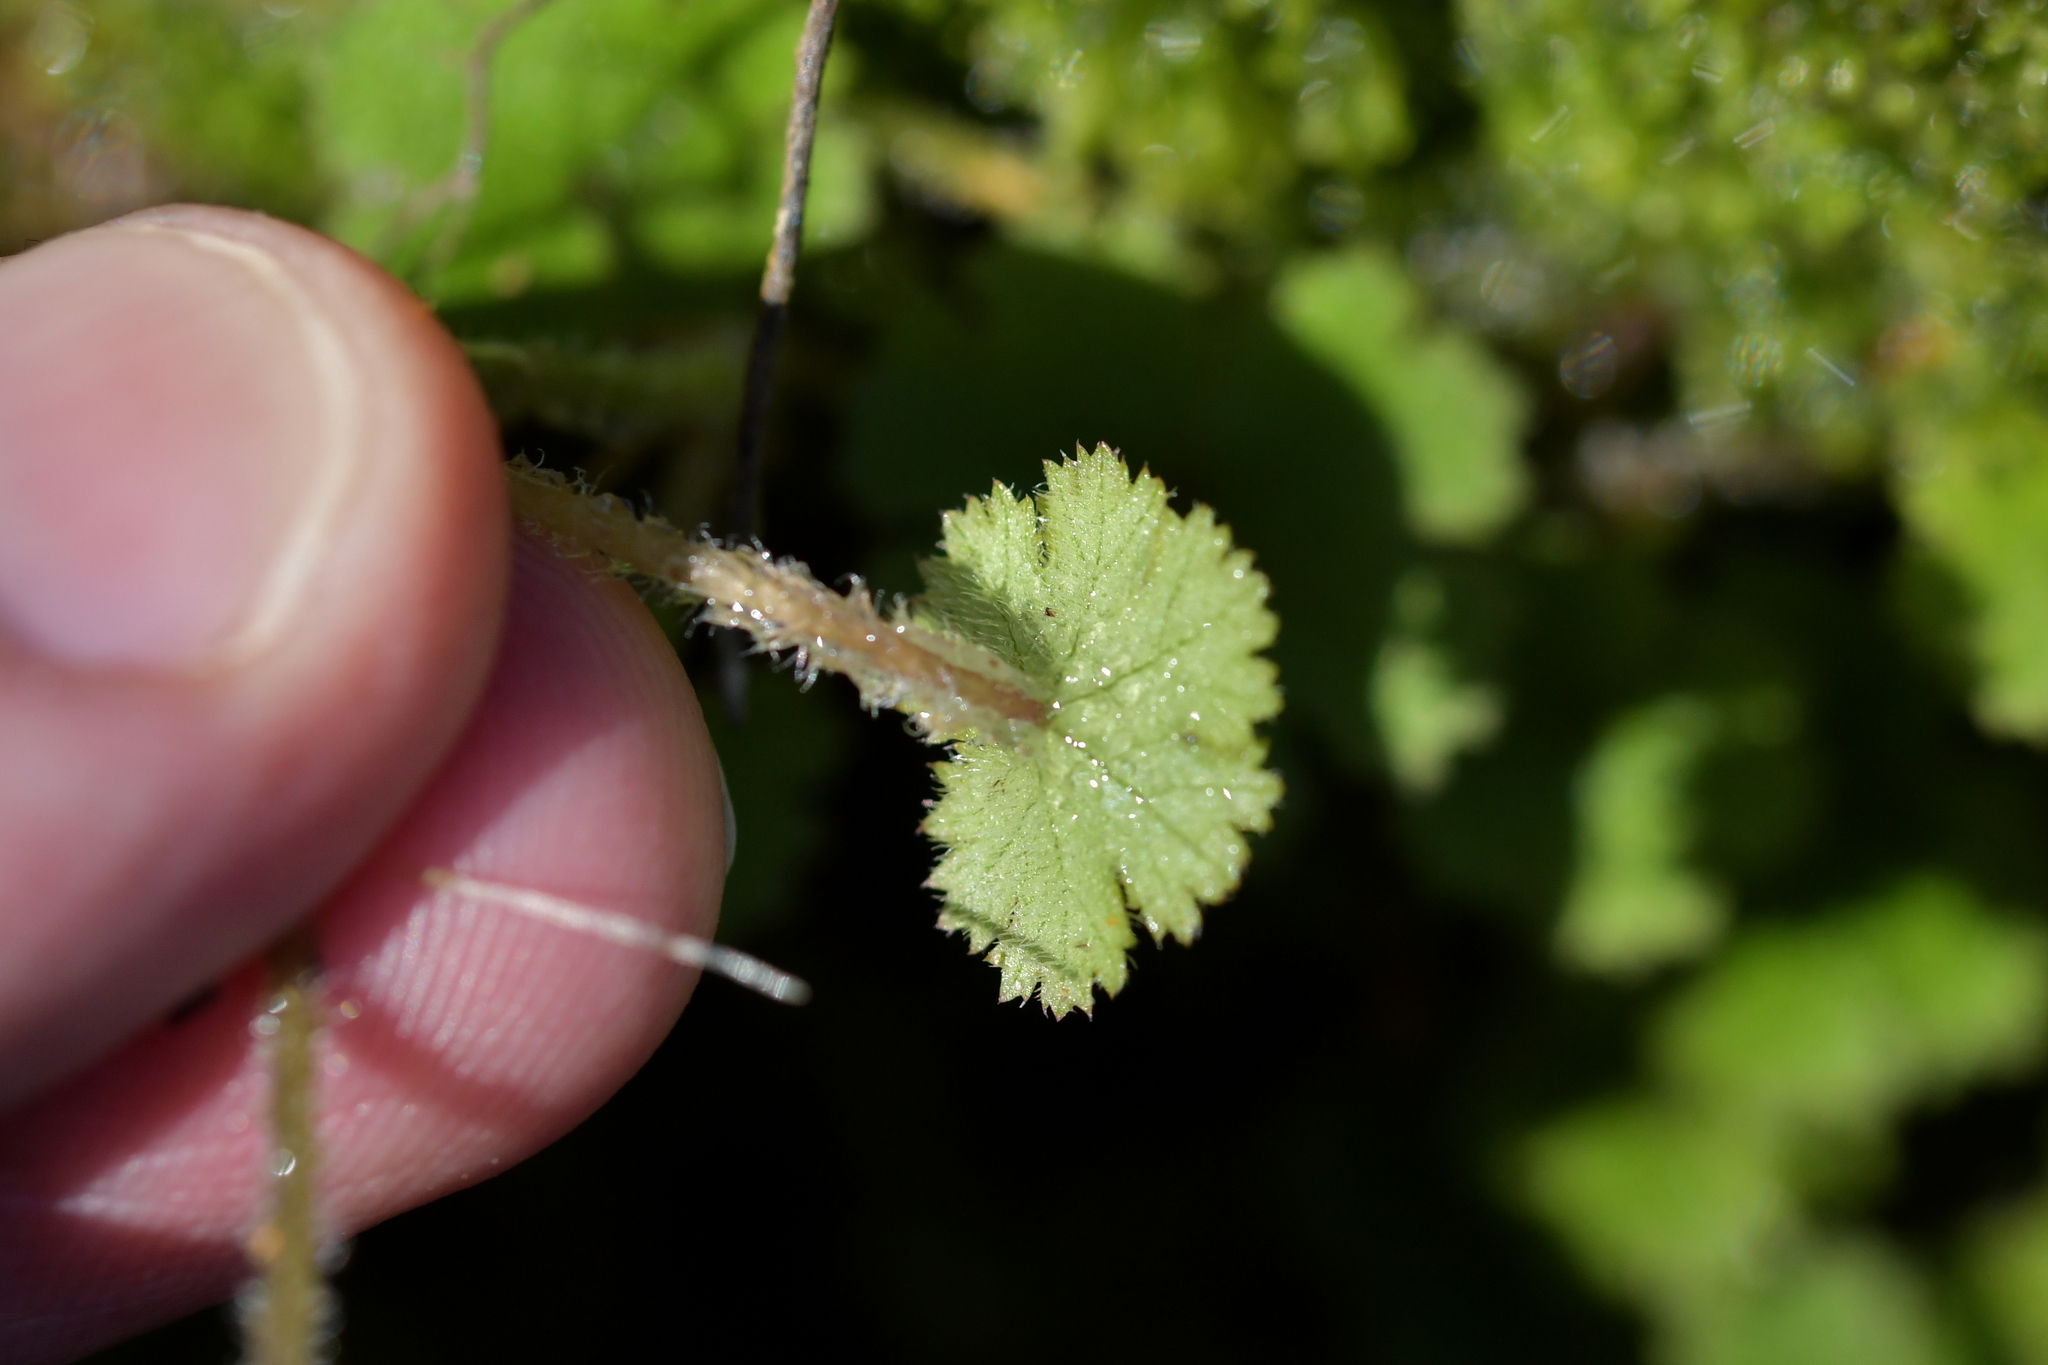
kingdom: Plantae
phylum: Tracheophyta
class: Magnoliopsida
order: Apiales
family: Araliaceae
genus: Hydrocotyle
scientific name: Hydrocotyle elongata
